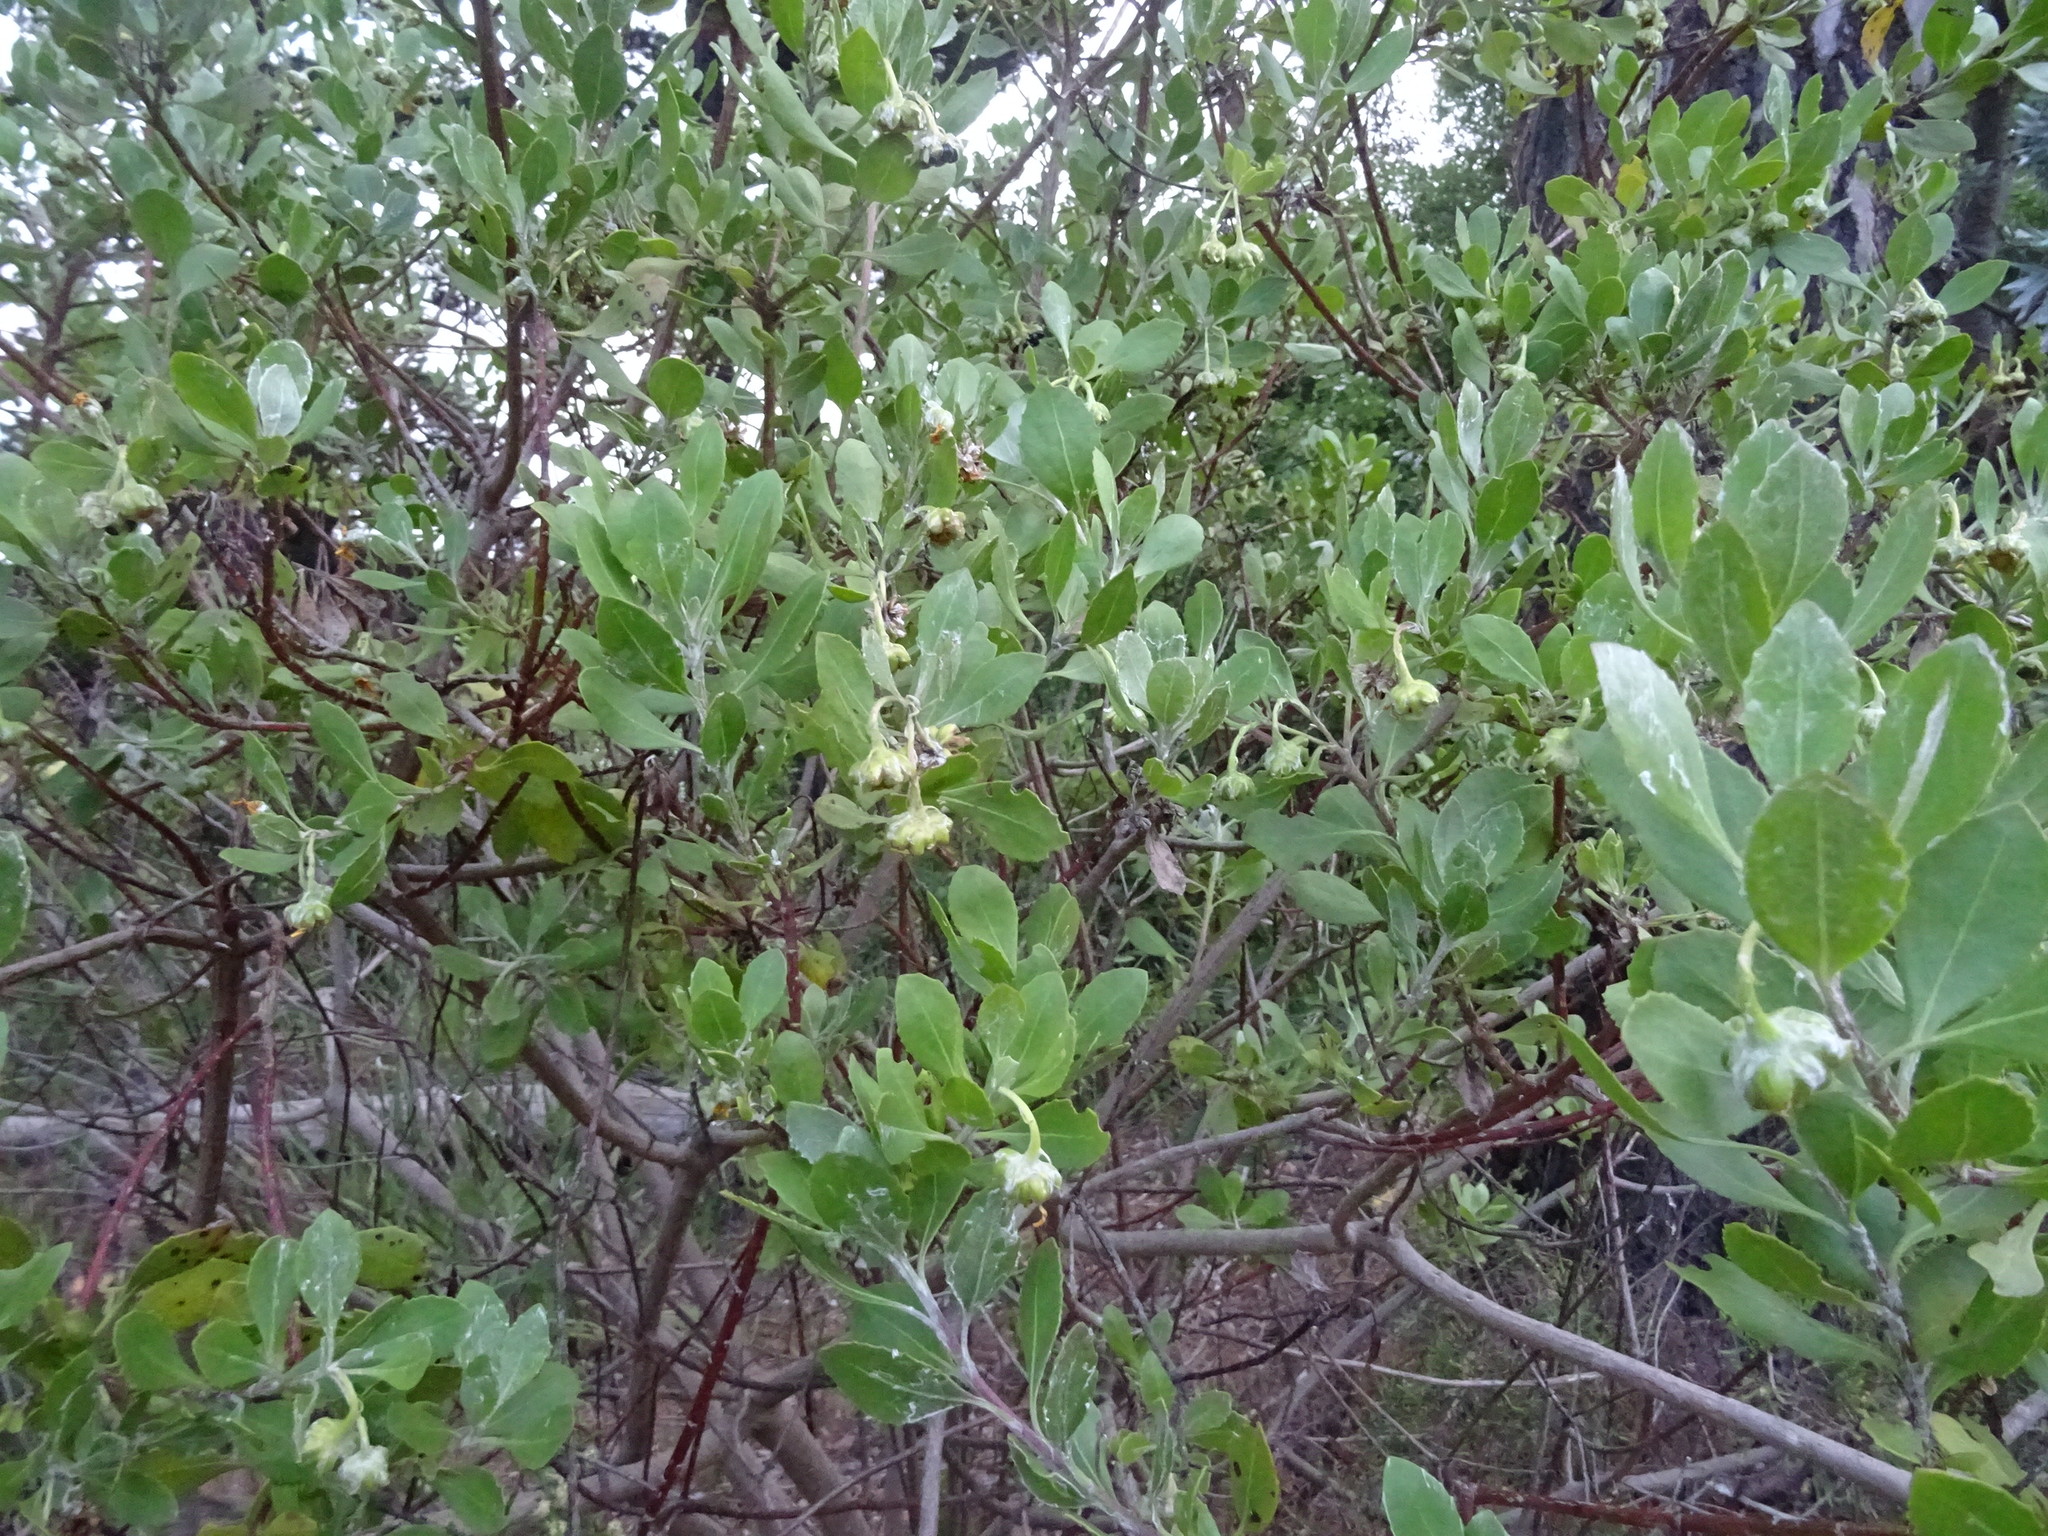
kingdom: Plantae
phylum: Tracheophyta
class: Magnoliopsida
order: Asterales
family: Asteraceae
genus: Osteospermum
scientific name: Osteospermum moniliferum
